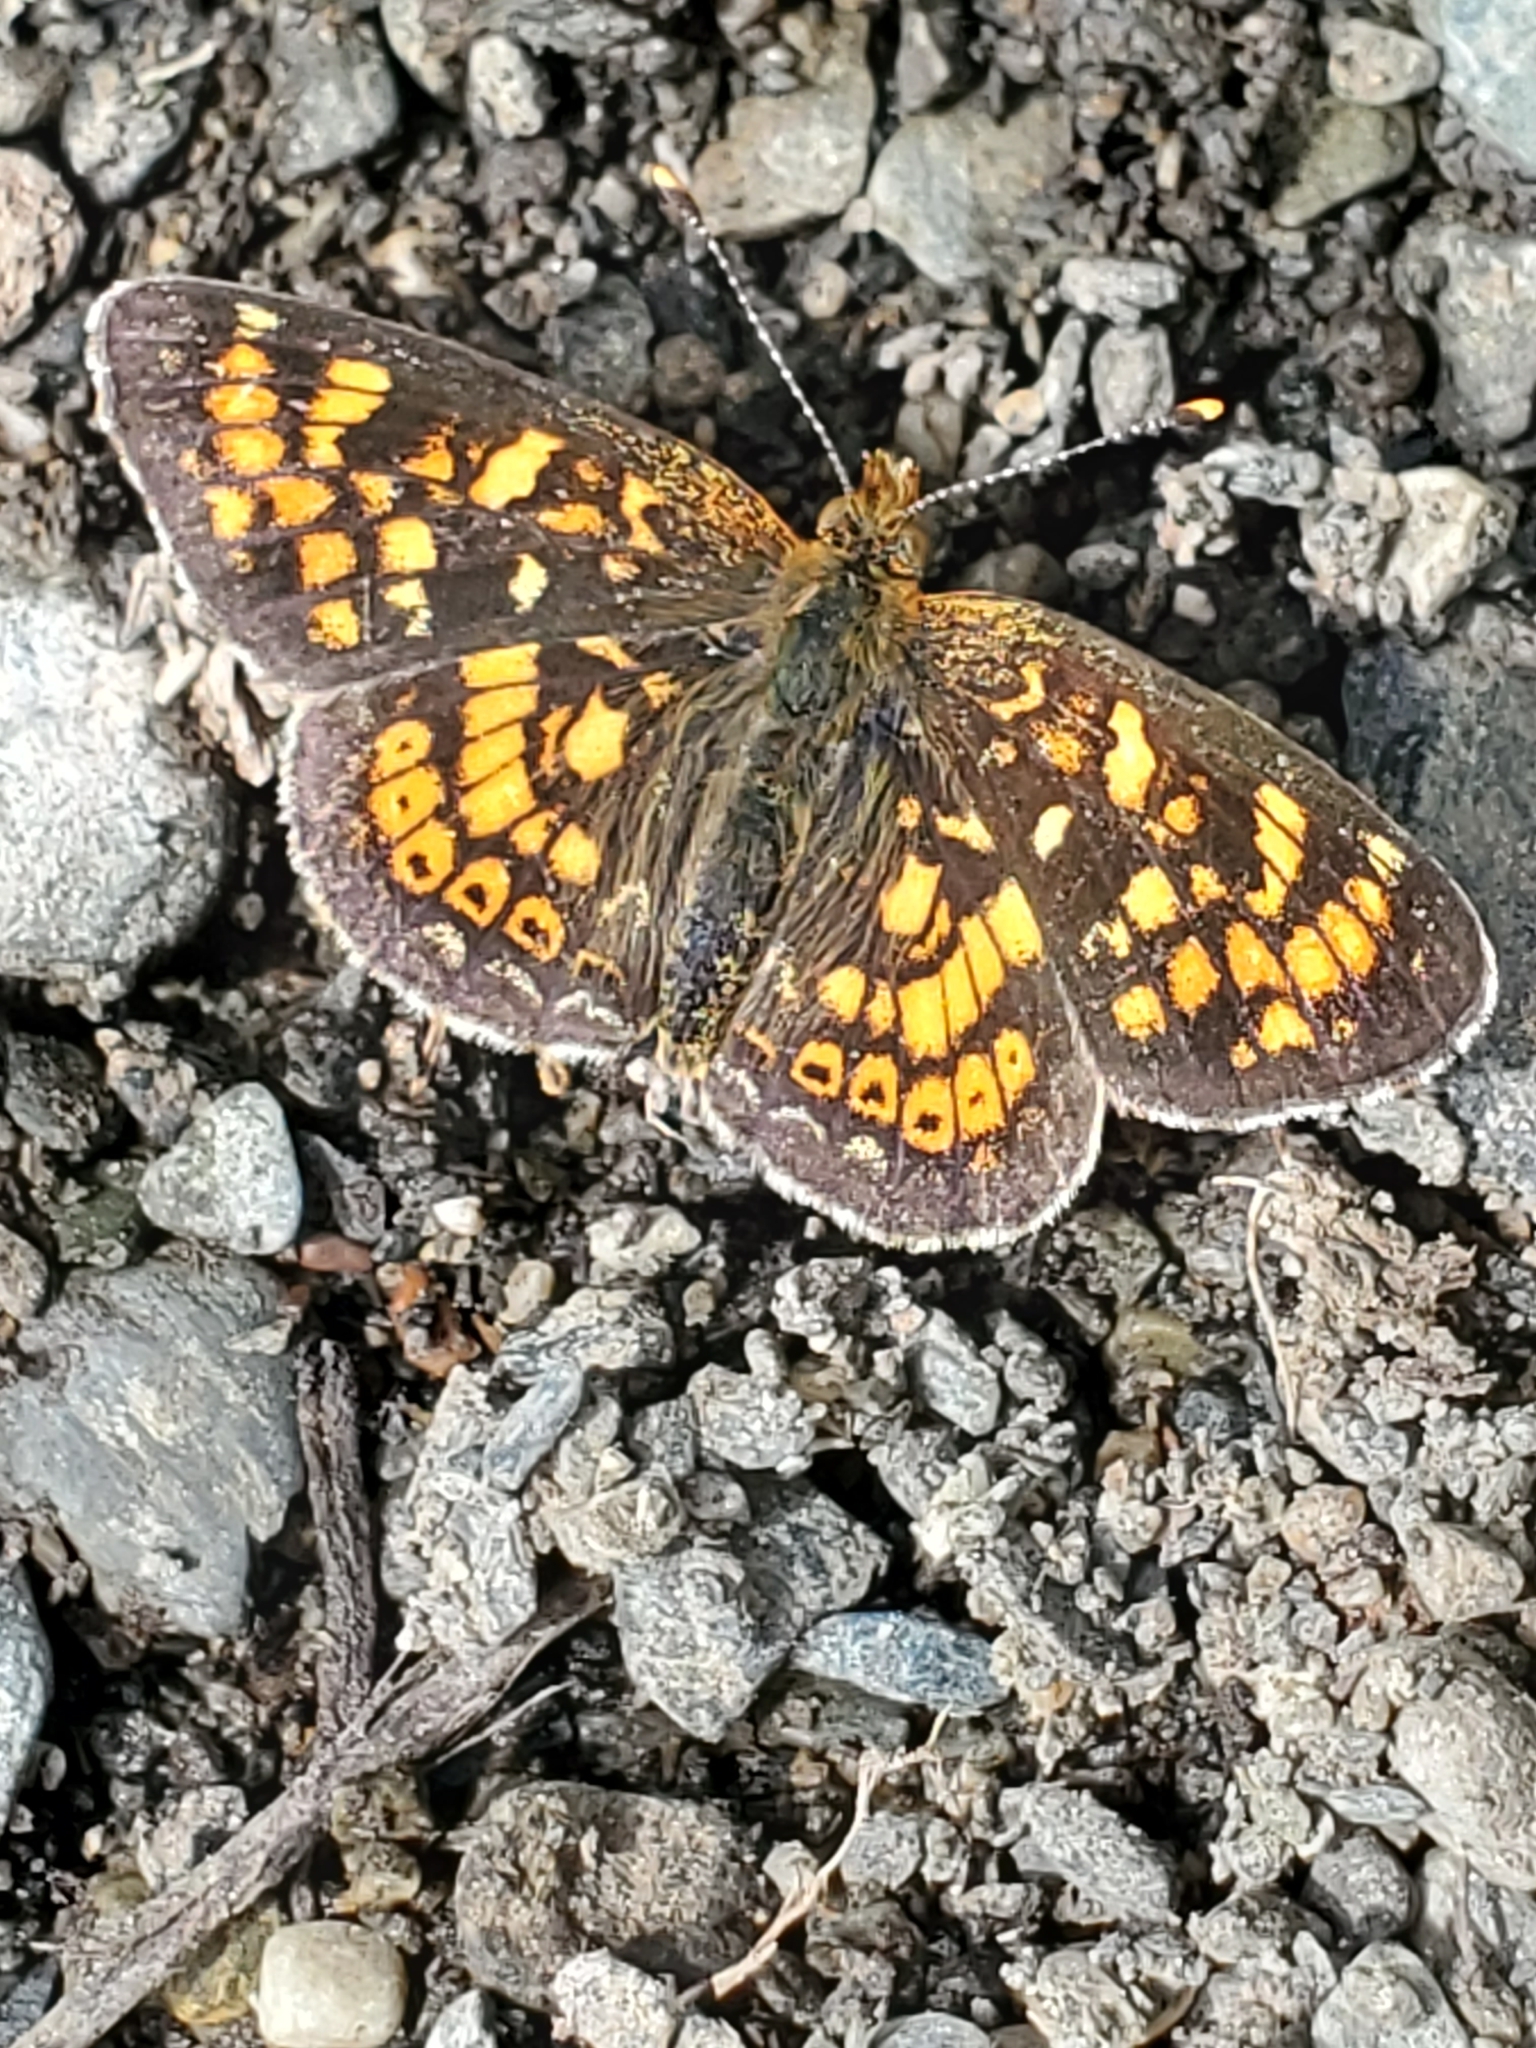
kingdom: Animalia
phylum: Arthropoda
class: Insecta
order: Lepidoptera
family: Nymphalidae
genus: Phyciodes
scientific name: Phyciodes tharos
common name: Pearl crescent
